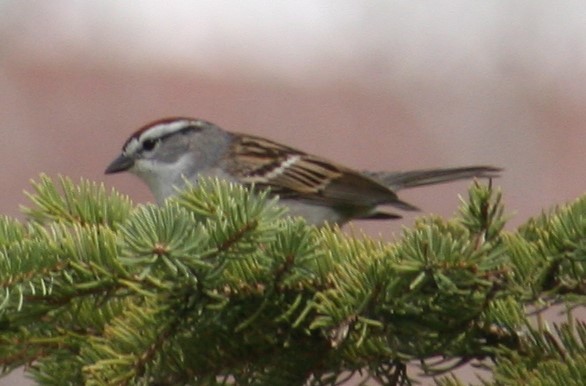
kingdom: Animalia
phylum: Chordata
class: Aves
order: Passeriformes
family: Passerellidae
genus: Spizella
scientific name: Spizella passerina
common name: Chipping sparrow
